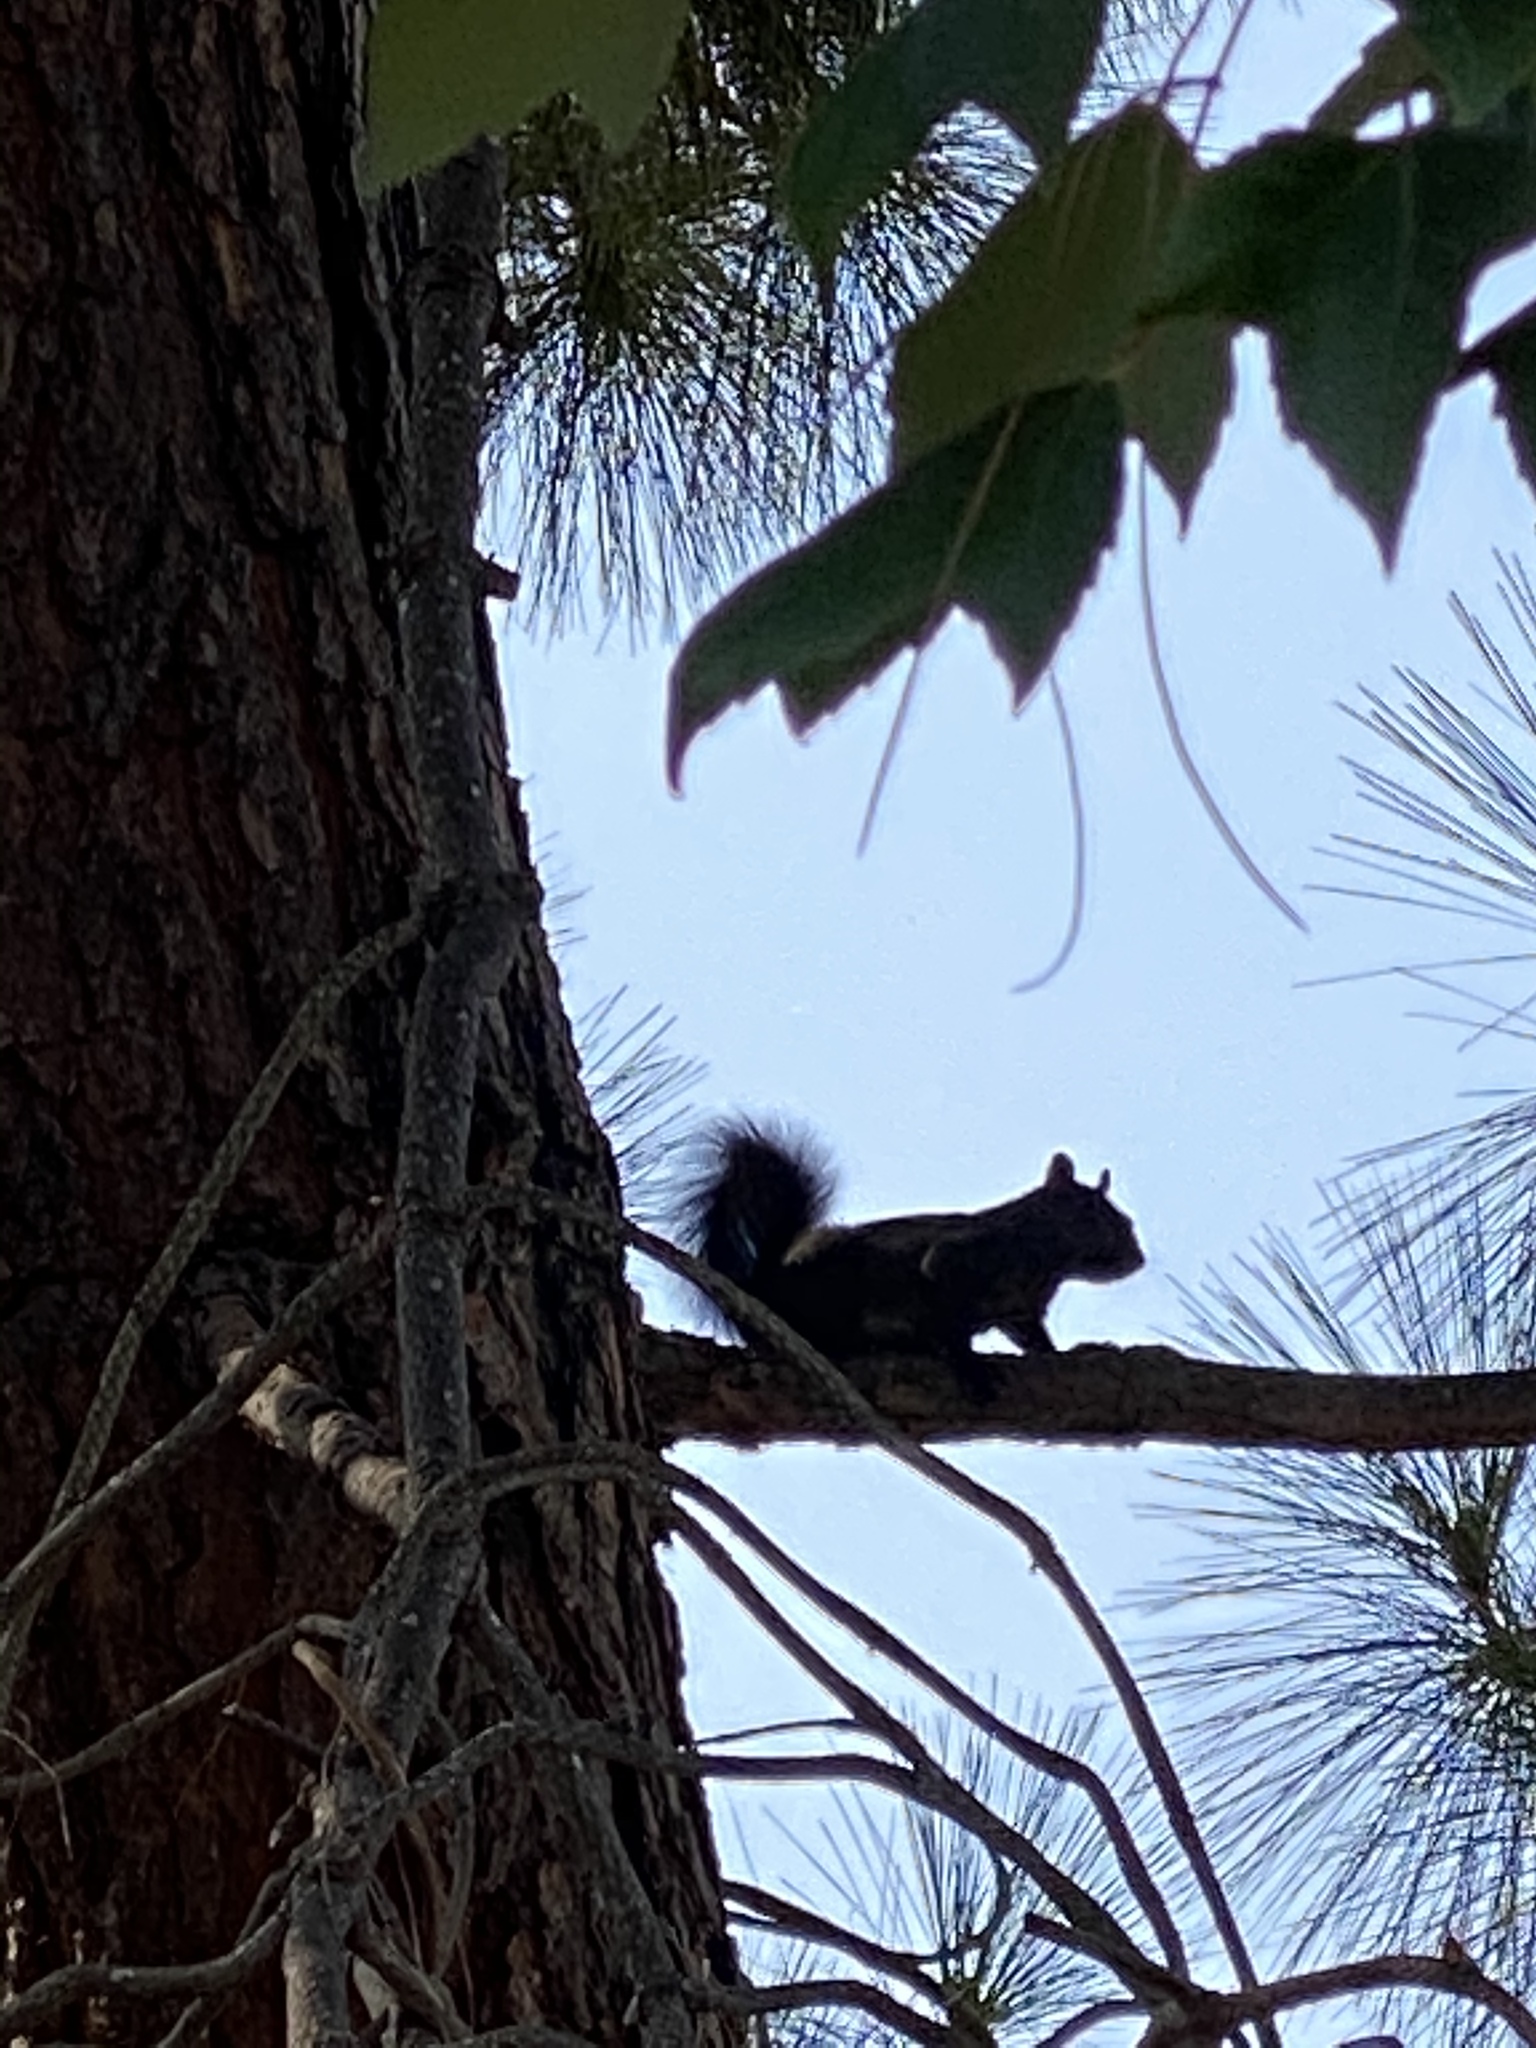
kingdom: Animalia
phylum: Chordata
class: Mammalia
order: Rodentia
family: Sciuridae
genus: Sciurus
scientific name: Sciurus carolinensis
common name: Eastern gray squirrel
